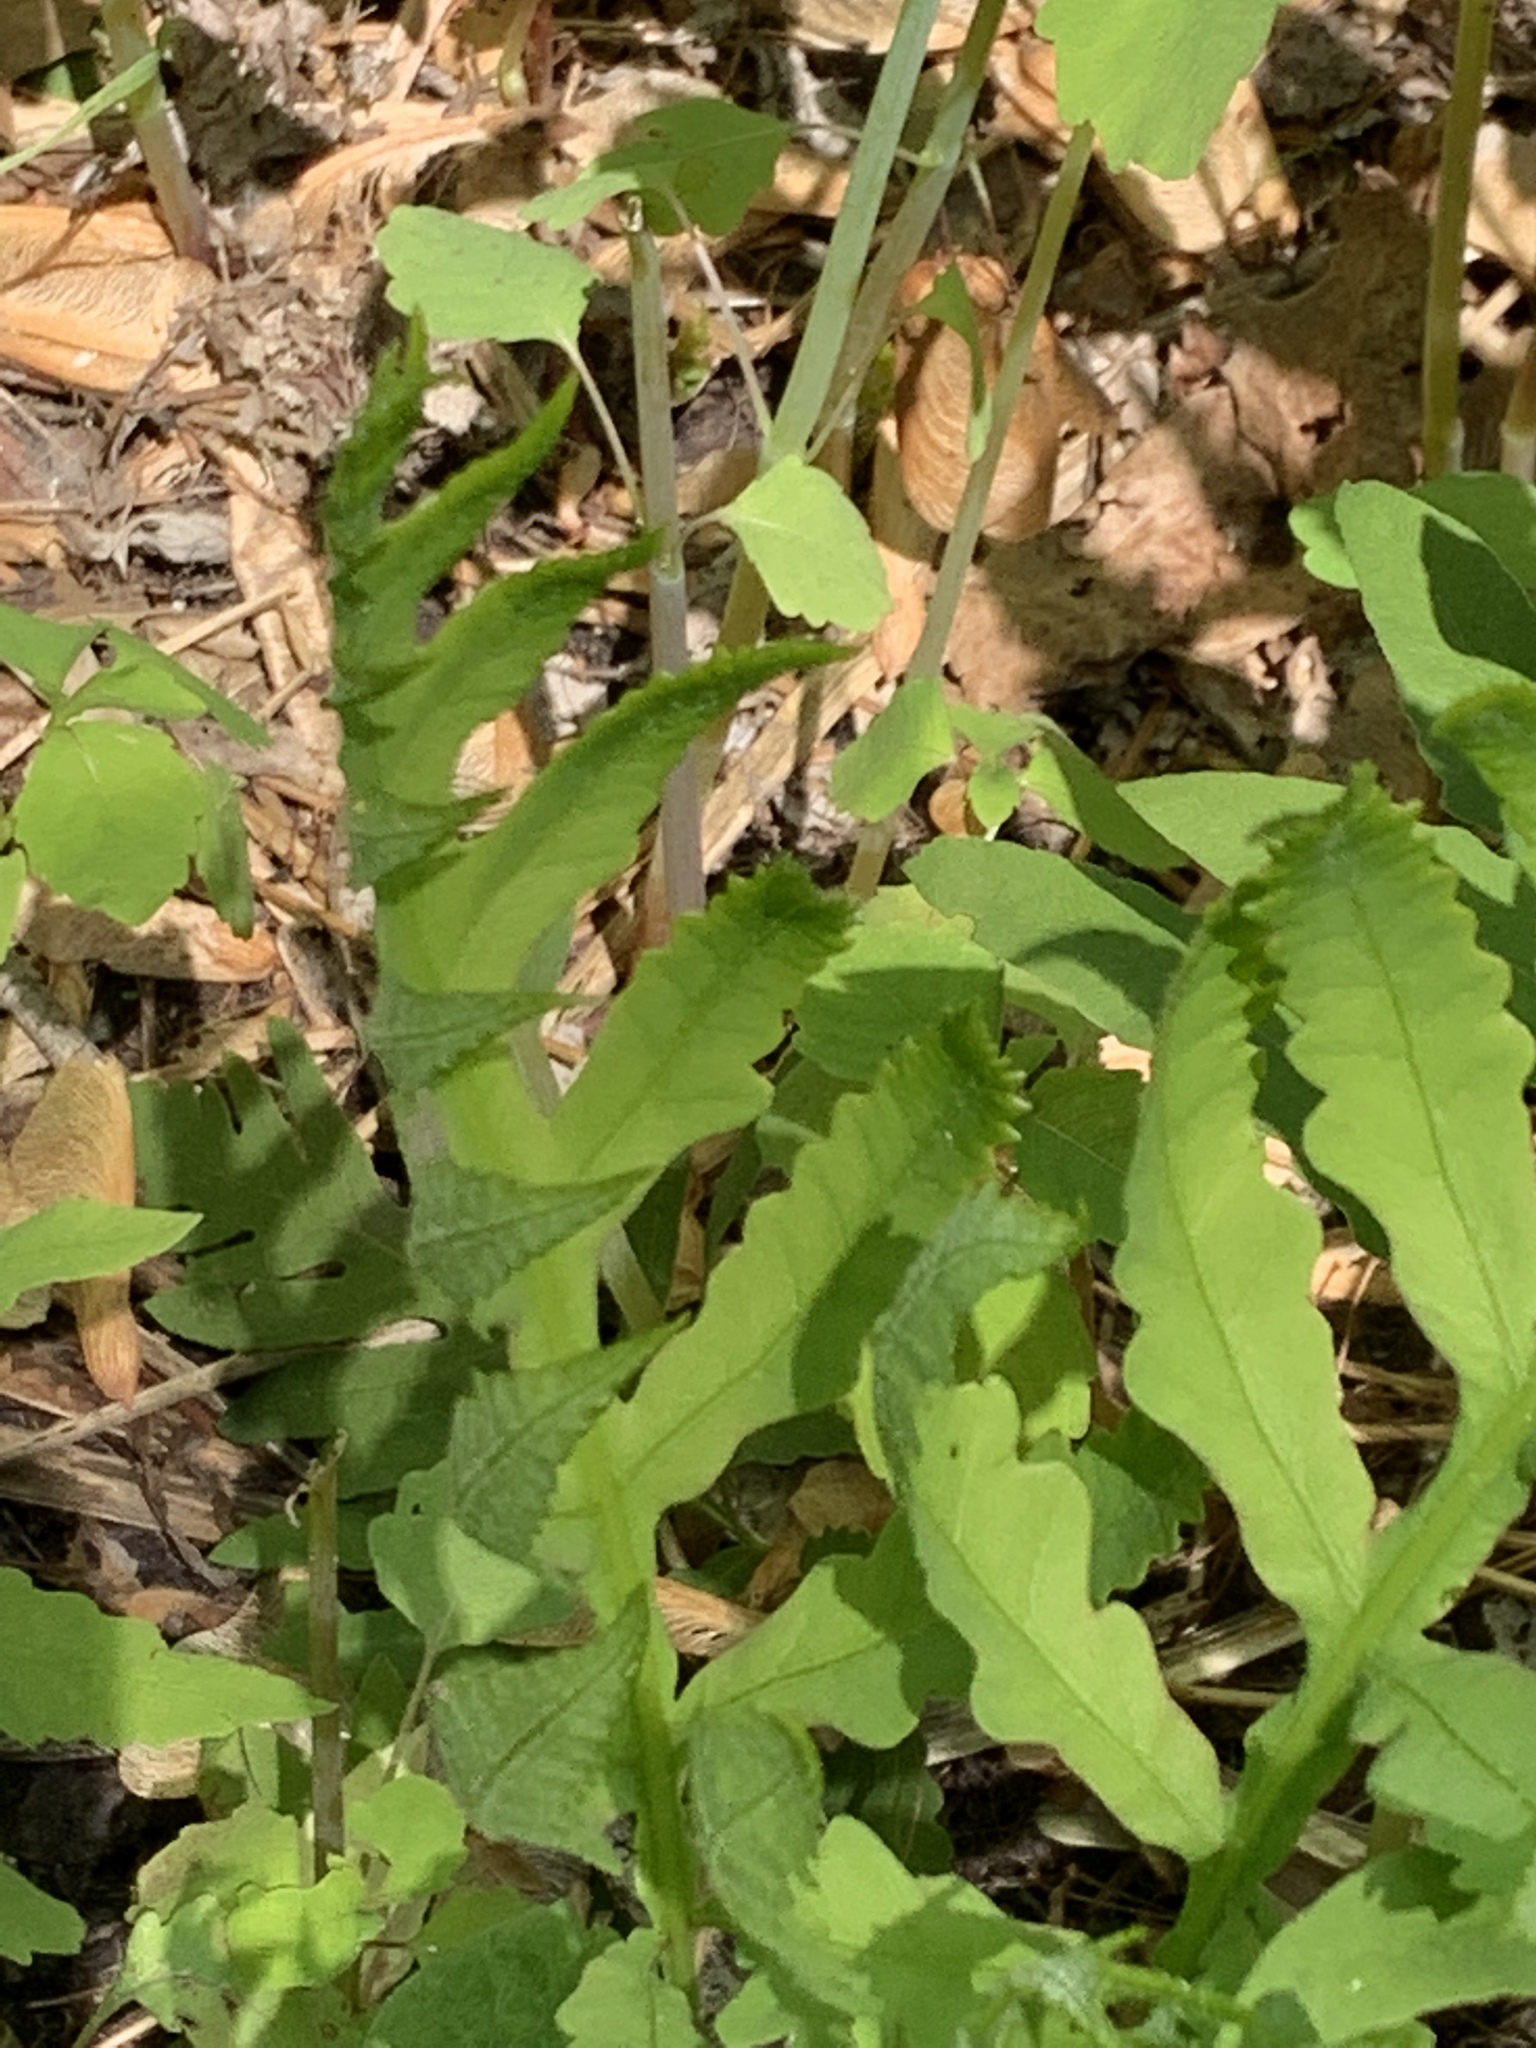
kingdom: Plantae
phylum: Tracheophyta
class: Polypodiopsida
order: Polypodiales
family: Onocleaceae
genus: Onoclea
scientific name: Onoclea sensibilis
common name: Sensitive fern
